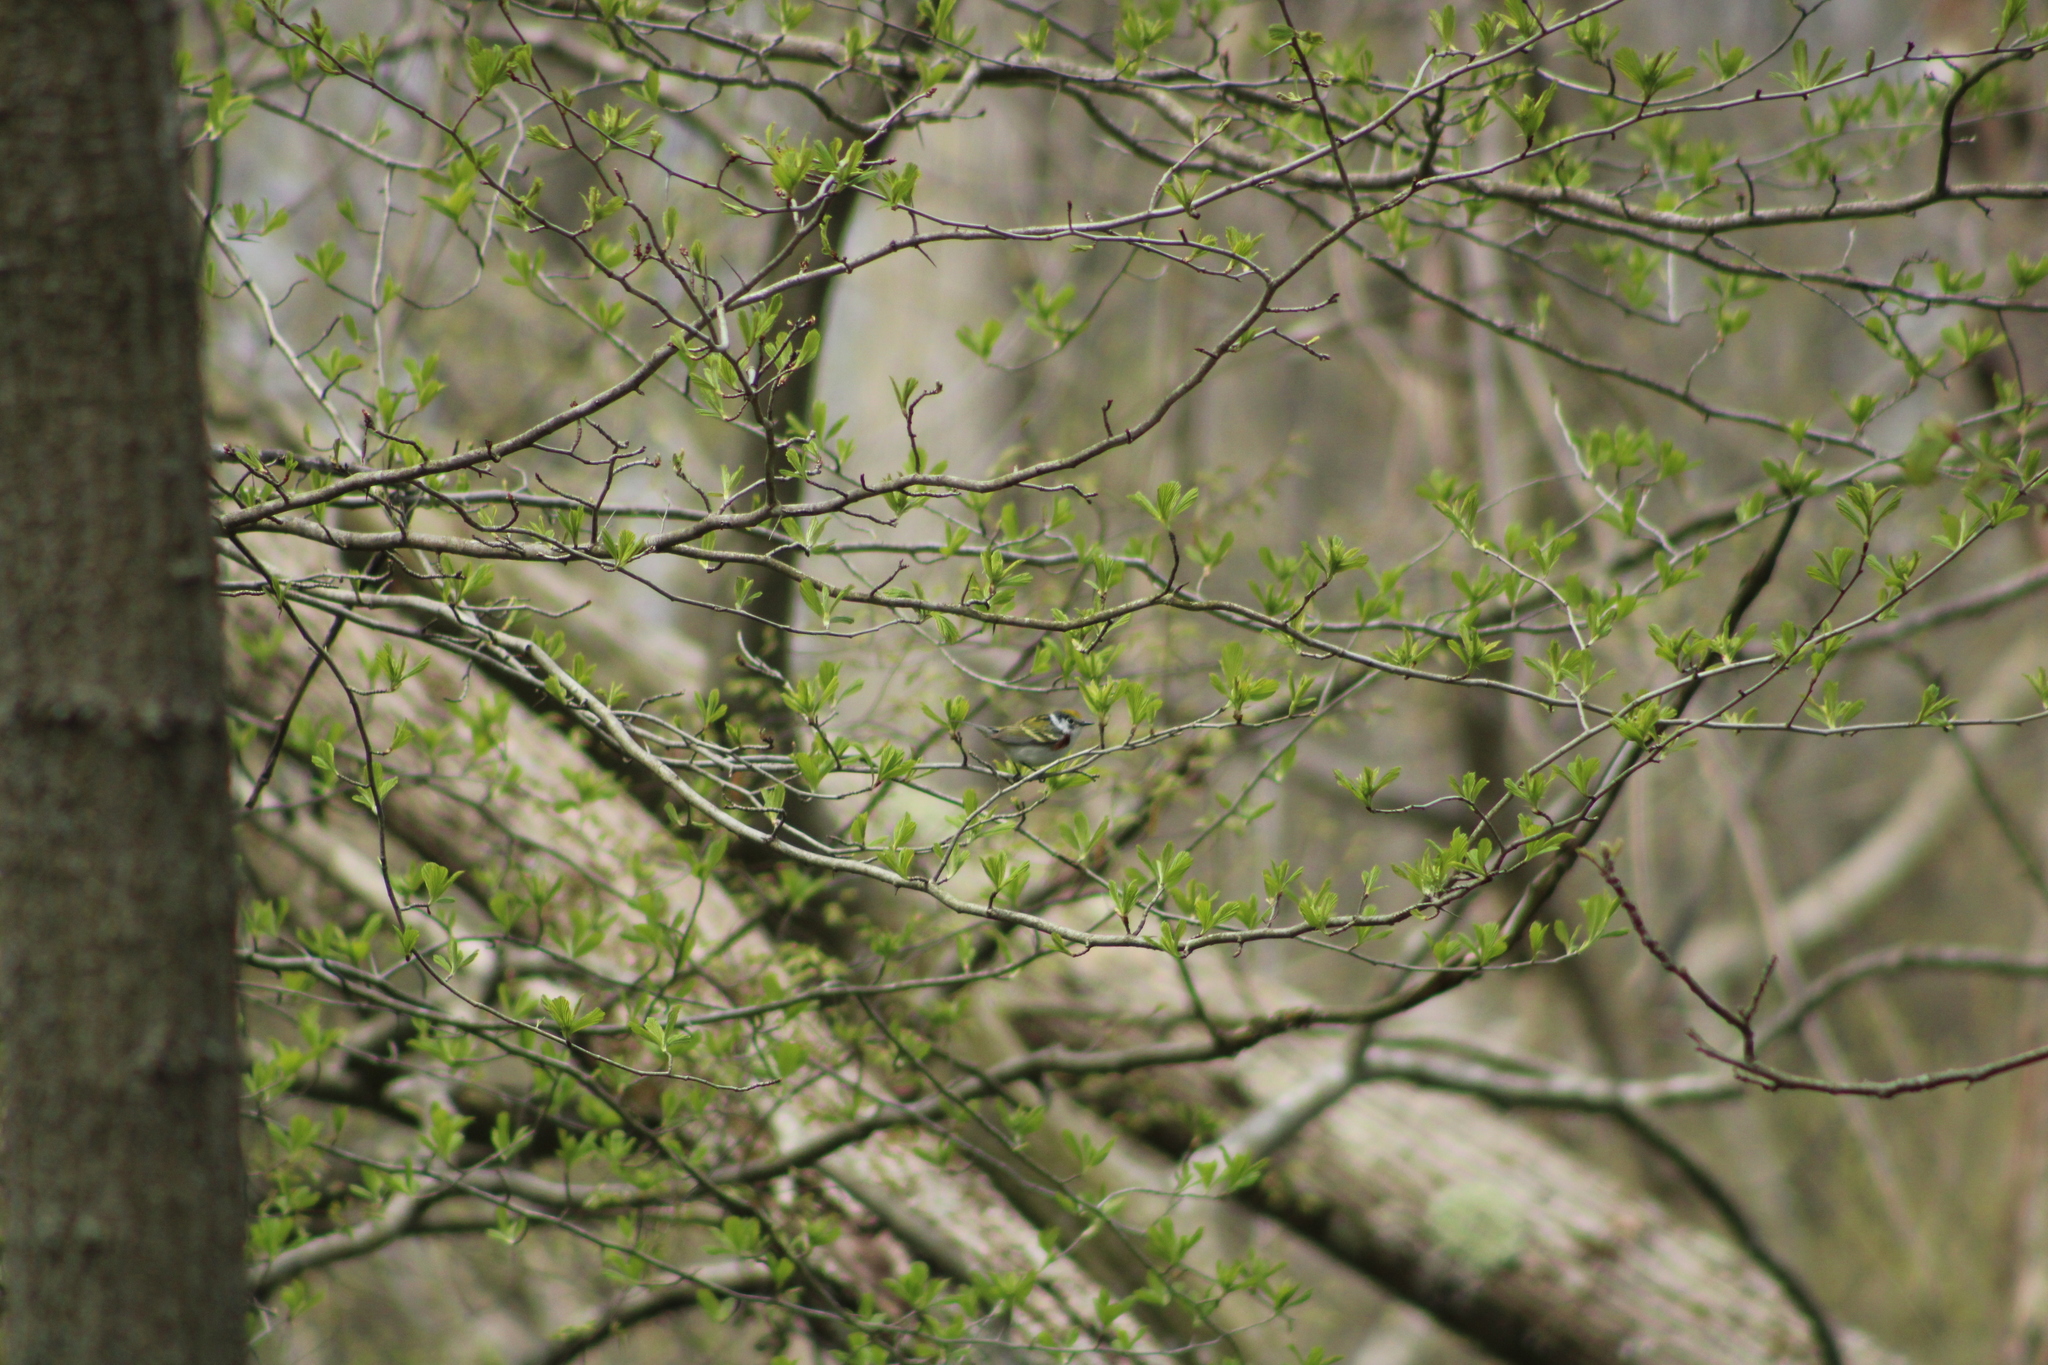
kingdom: Animalia
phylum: Chordata
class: Aves
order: Passeriformes
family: Parulidae
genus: Setophaga
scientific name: Setophaga pensylvanica
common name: Chestnut-sided warbler
